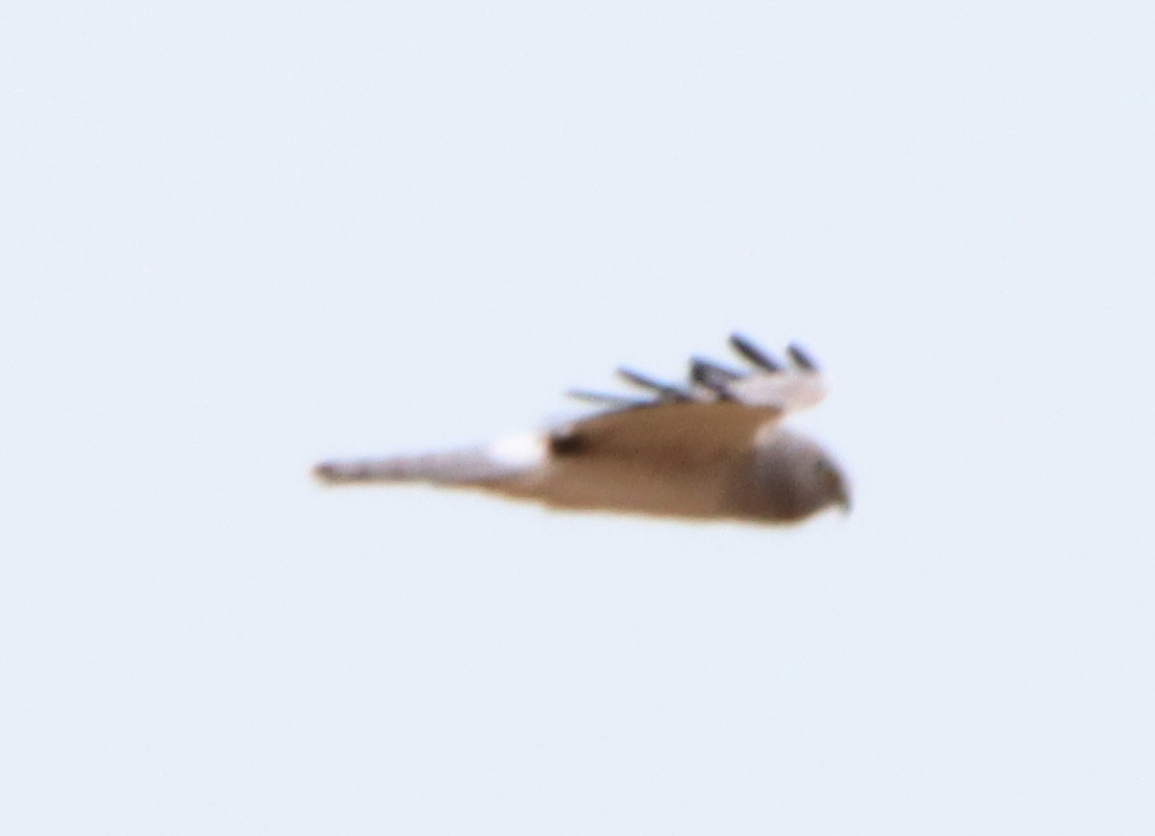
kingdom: Animalia
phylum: Chordata
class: Aves
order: Accipitriformes
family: Accipitridae
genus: Circus
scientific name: Circus cyaneus
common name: Hen harrier
